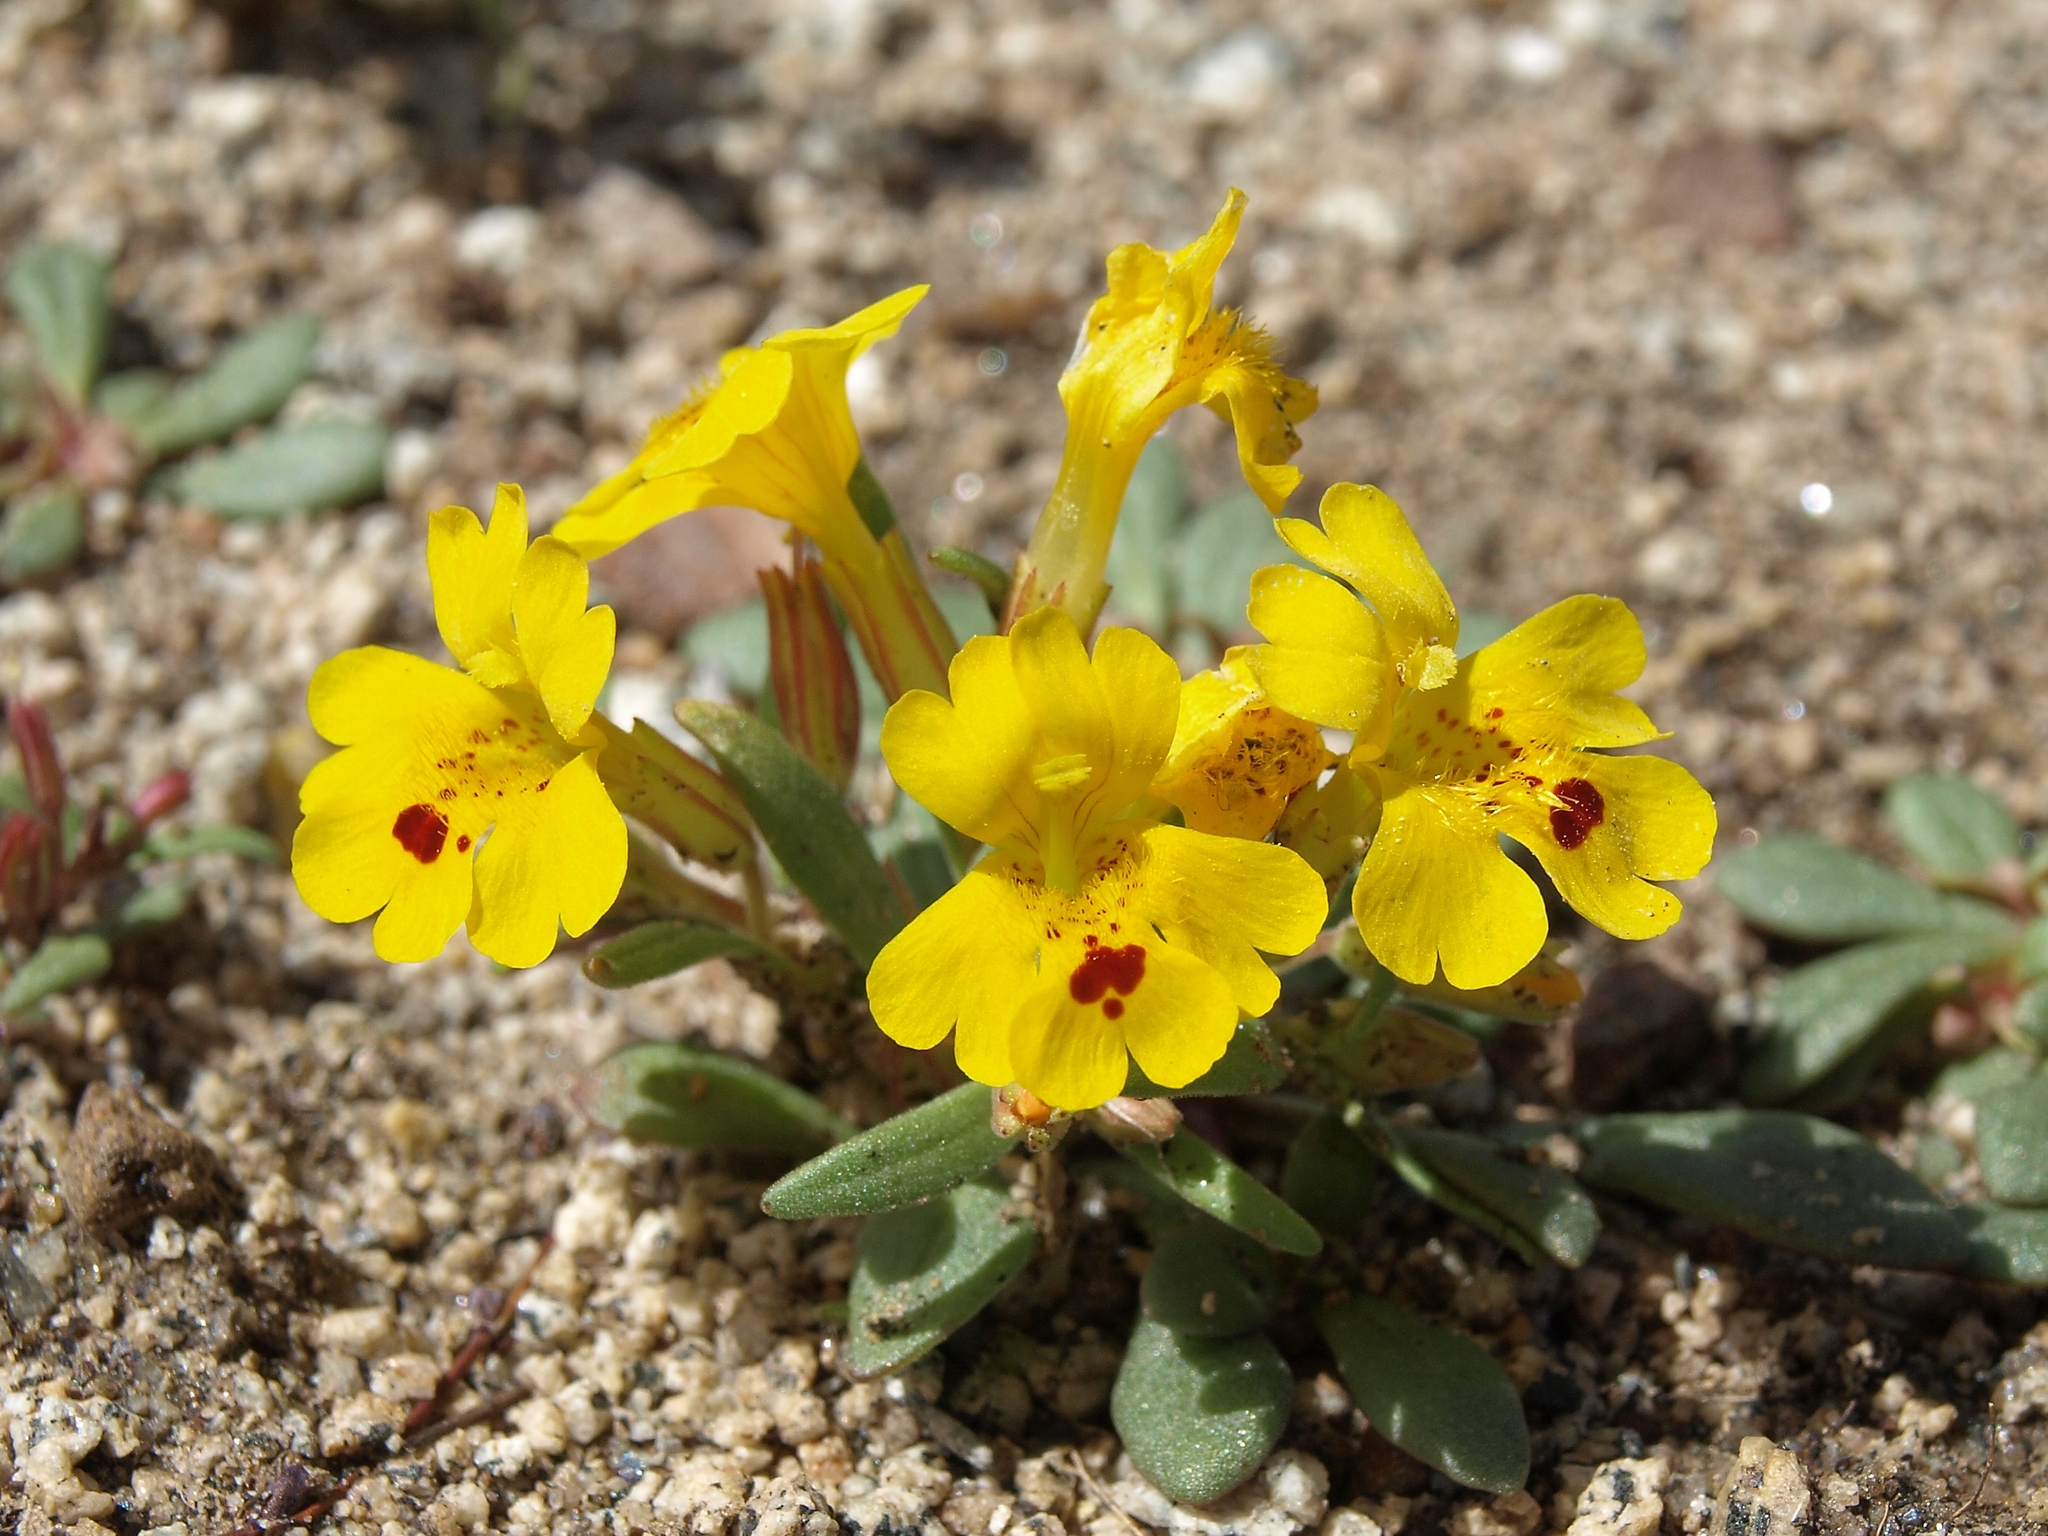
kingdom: Plantae
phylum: Tracheophyta
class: Magnoliopsida
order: Lamiales
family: Phrymaceae
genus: Erythranthe
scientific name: Erythranthe carsonensis
